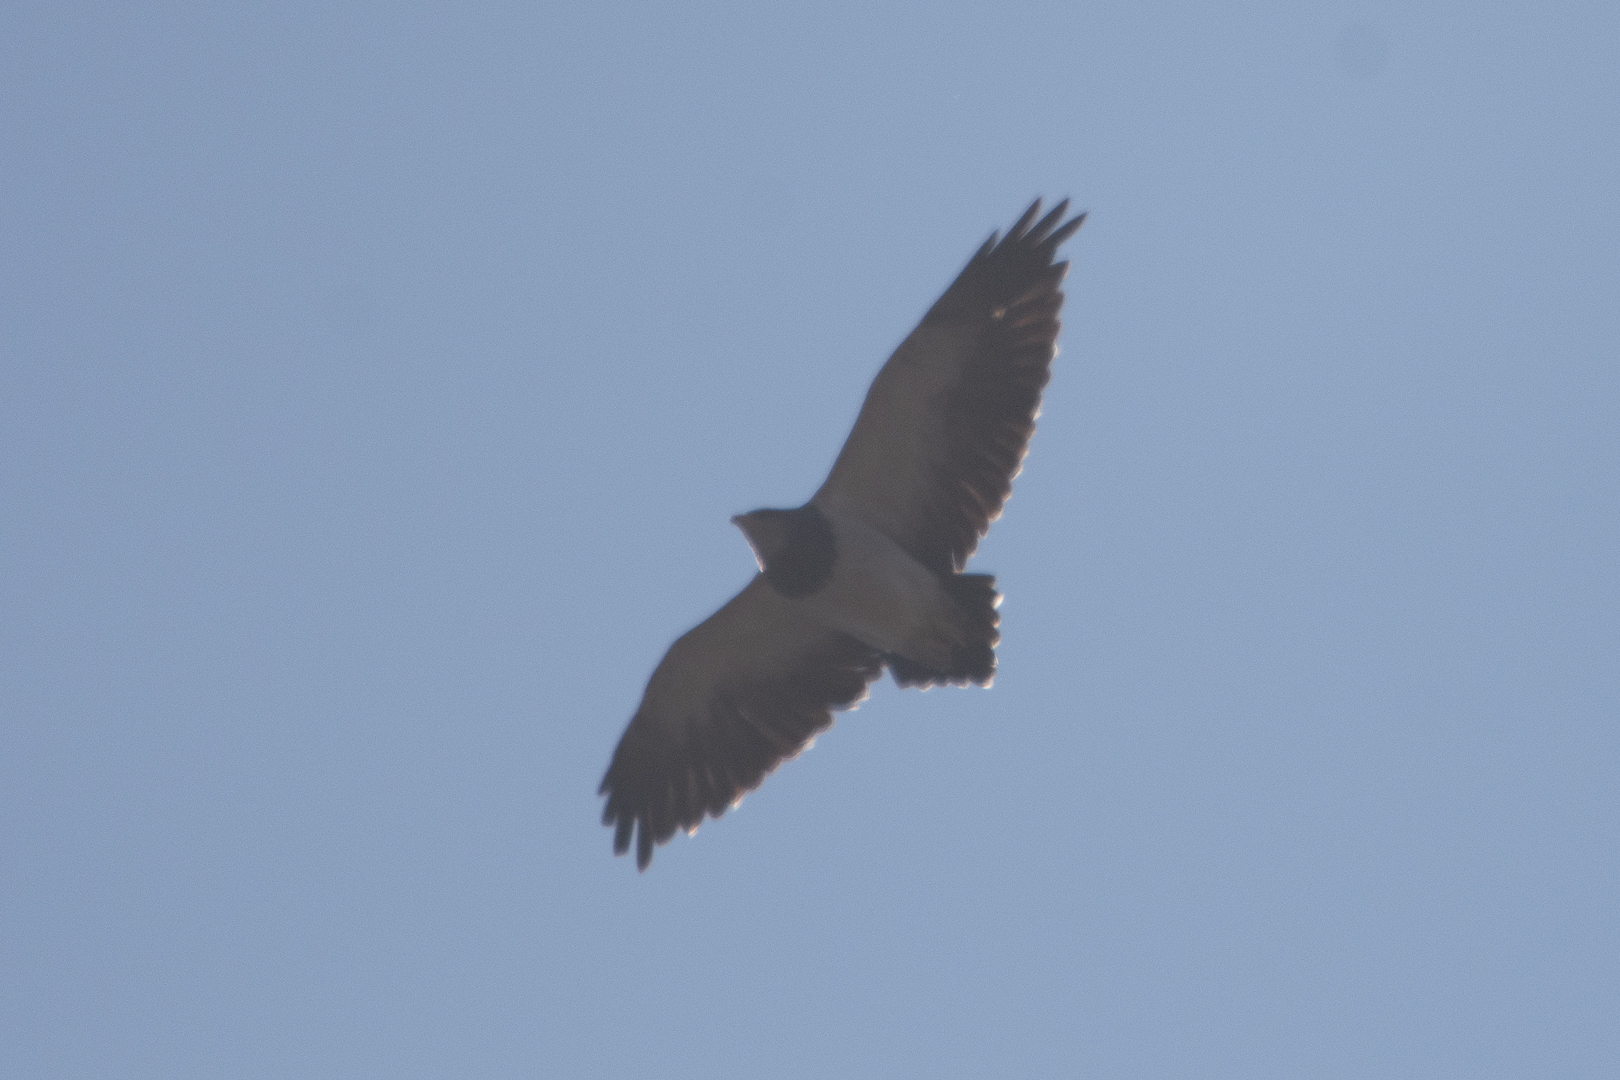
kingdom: Animalia
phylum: Chordata
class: Aves
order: Accipitriformes
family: Accipitridae
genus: Geranoaetus
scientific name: Geranoaetus melanoleucus
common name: Black-chested buzzard-eagle
